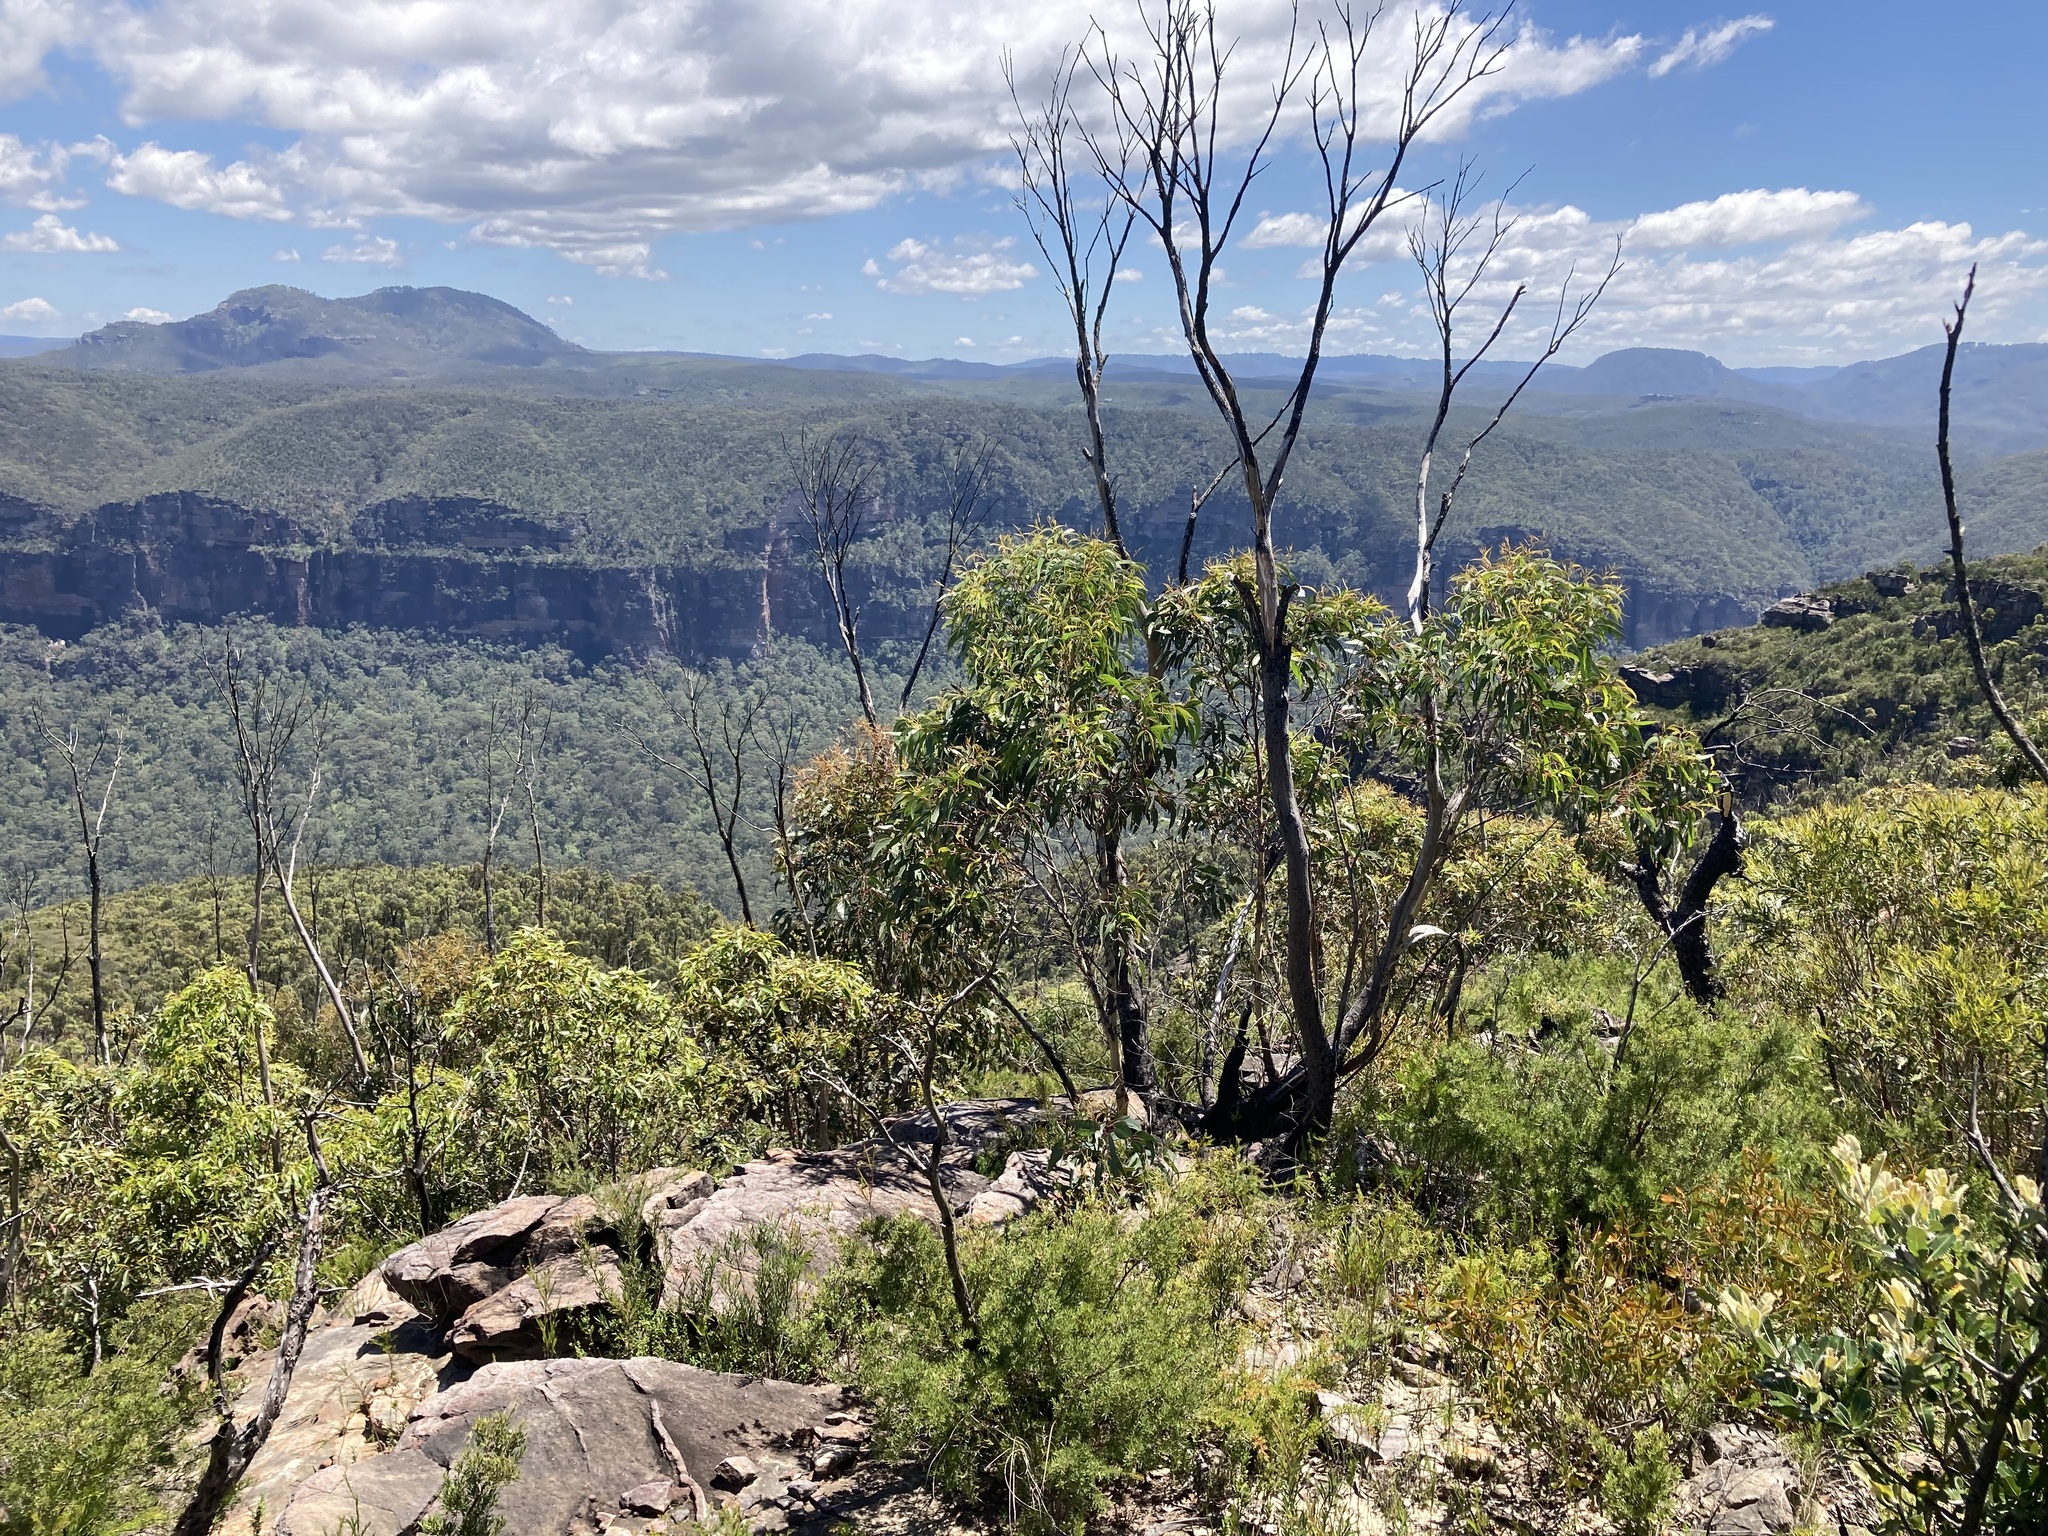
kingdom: Plantae
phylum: Tracheophyta
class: Magnoliopsida
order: Myrtales
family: Myrtaceae
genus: Eucalyptus
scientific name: Eucalyptus
